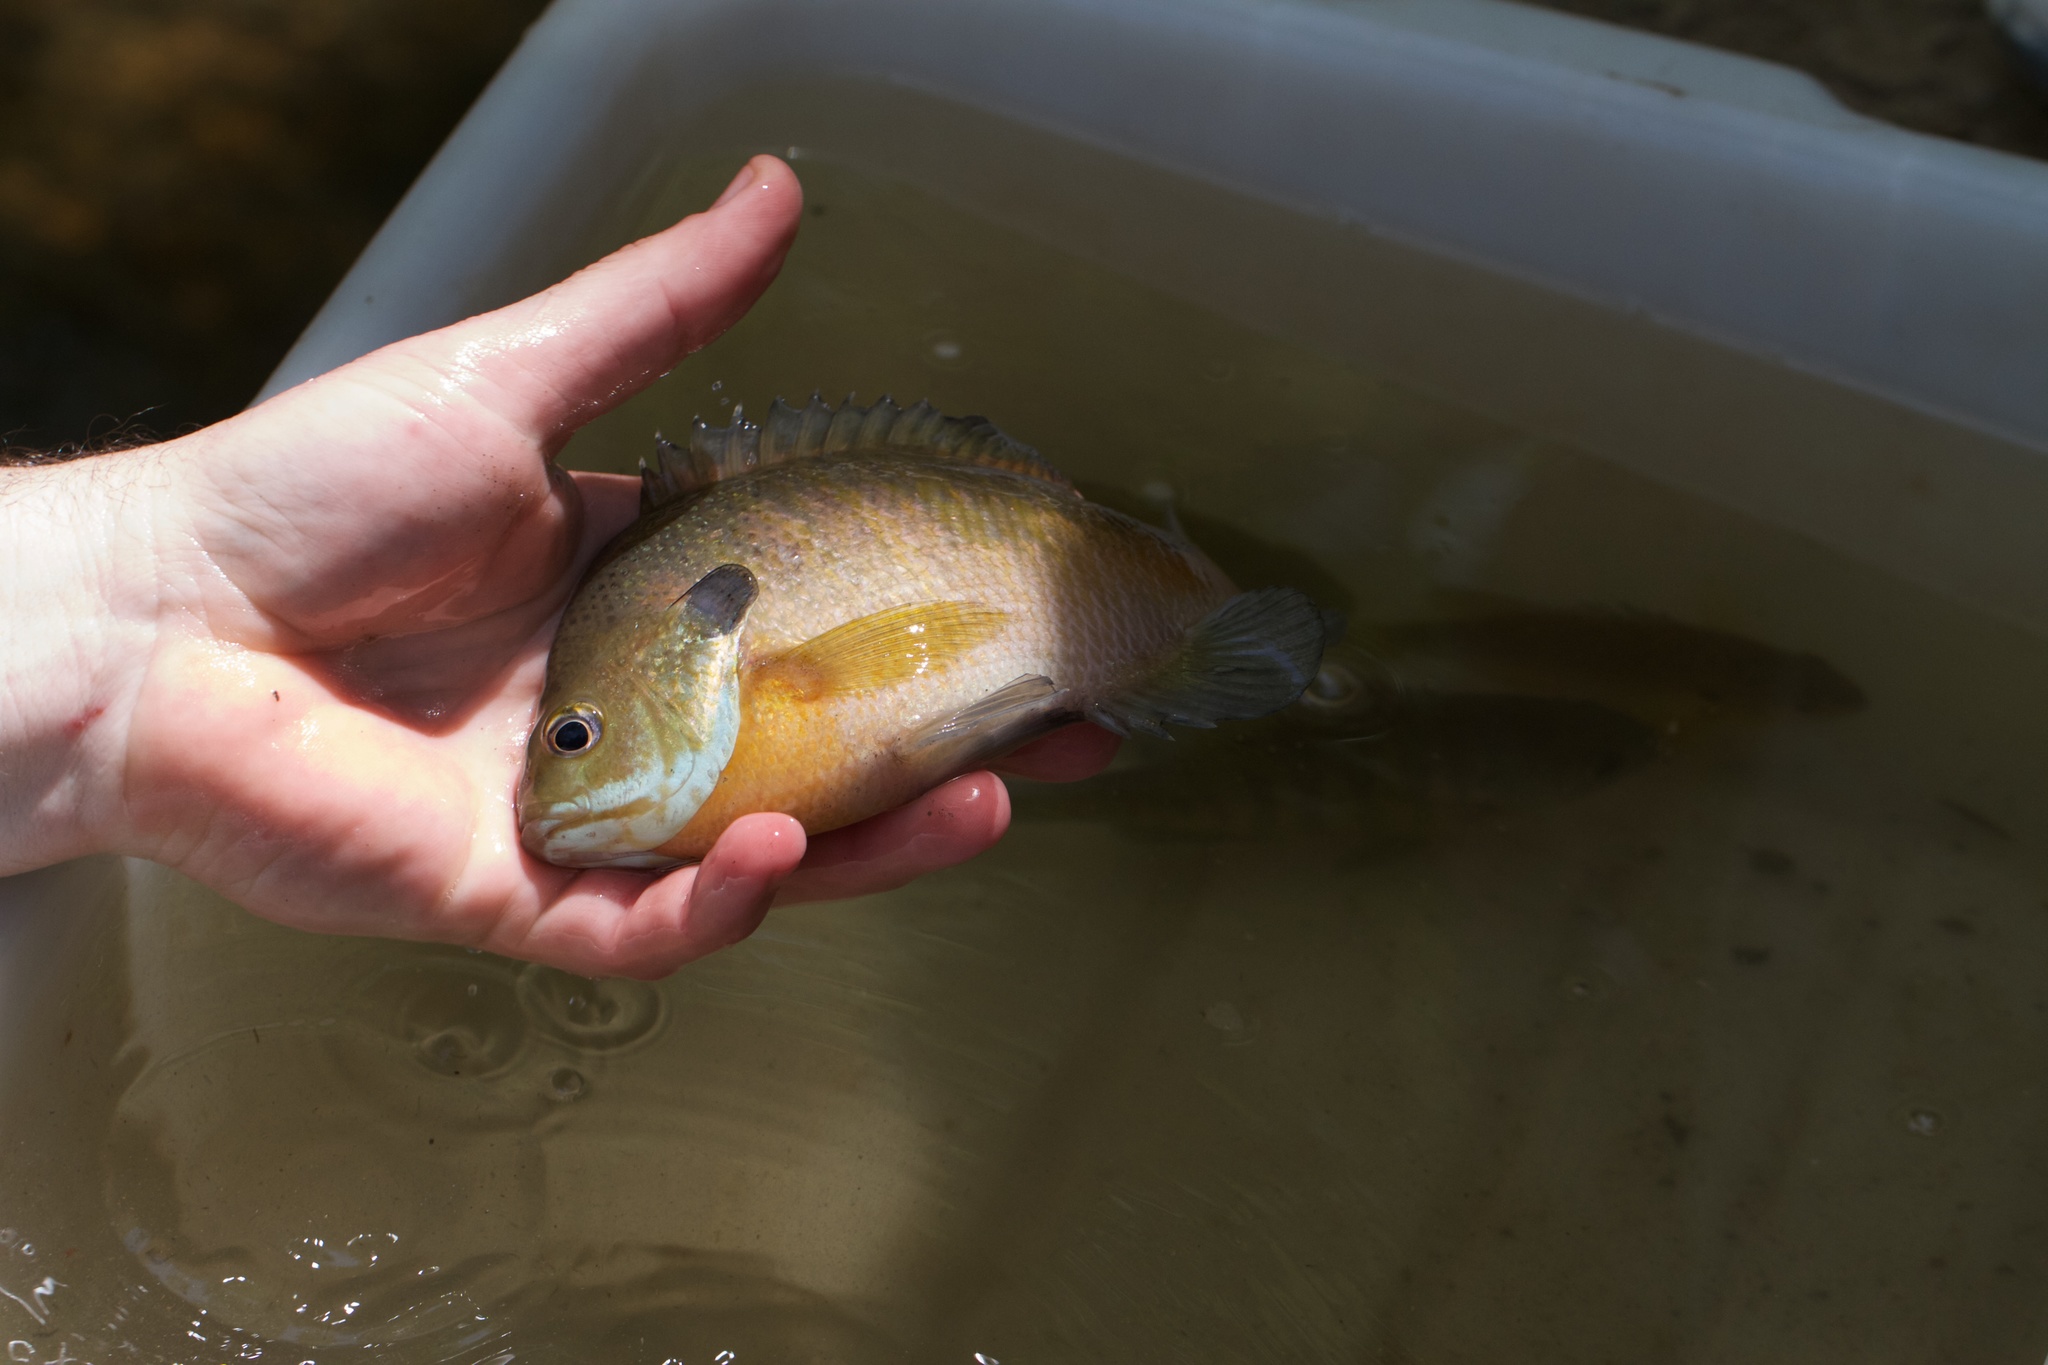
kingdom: Animalia
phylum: Chordata
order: Perciformes
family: Centrarchidae
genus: Lepomis
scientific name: Lepomis macrochirus
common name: Bluegill
